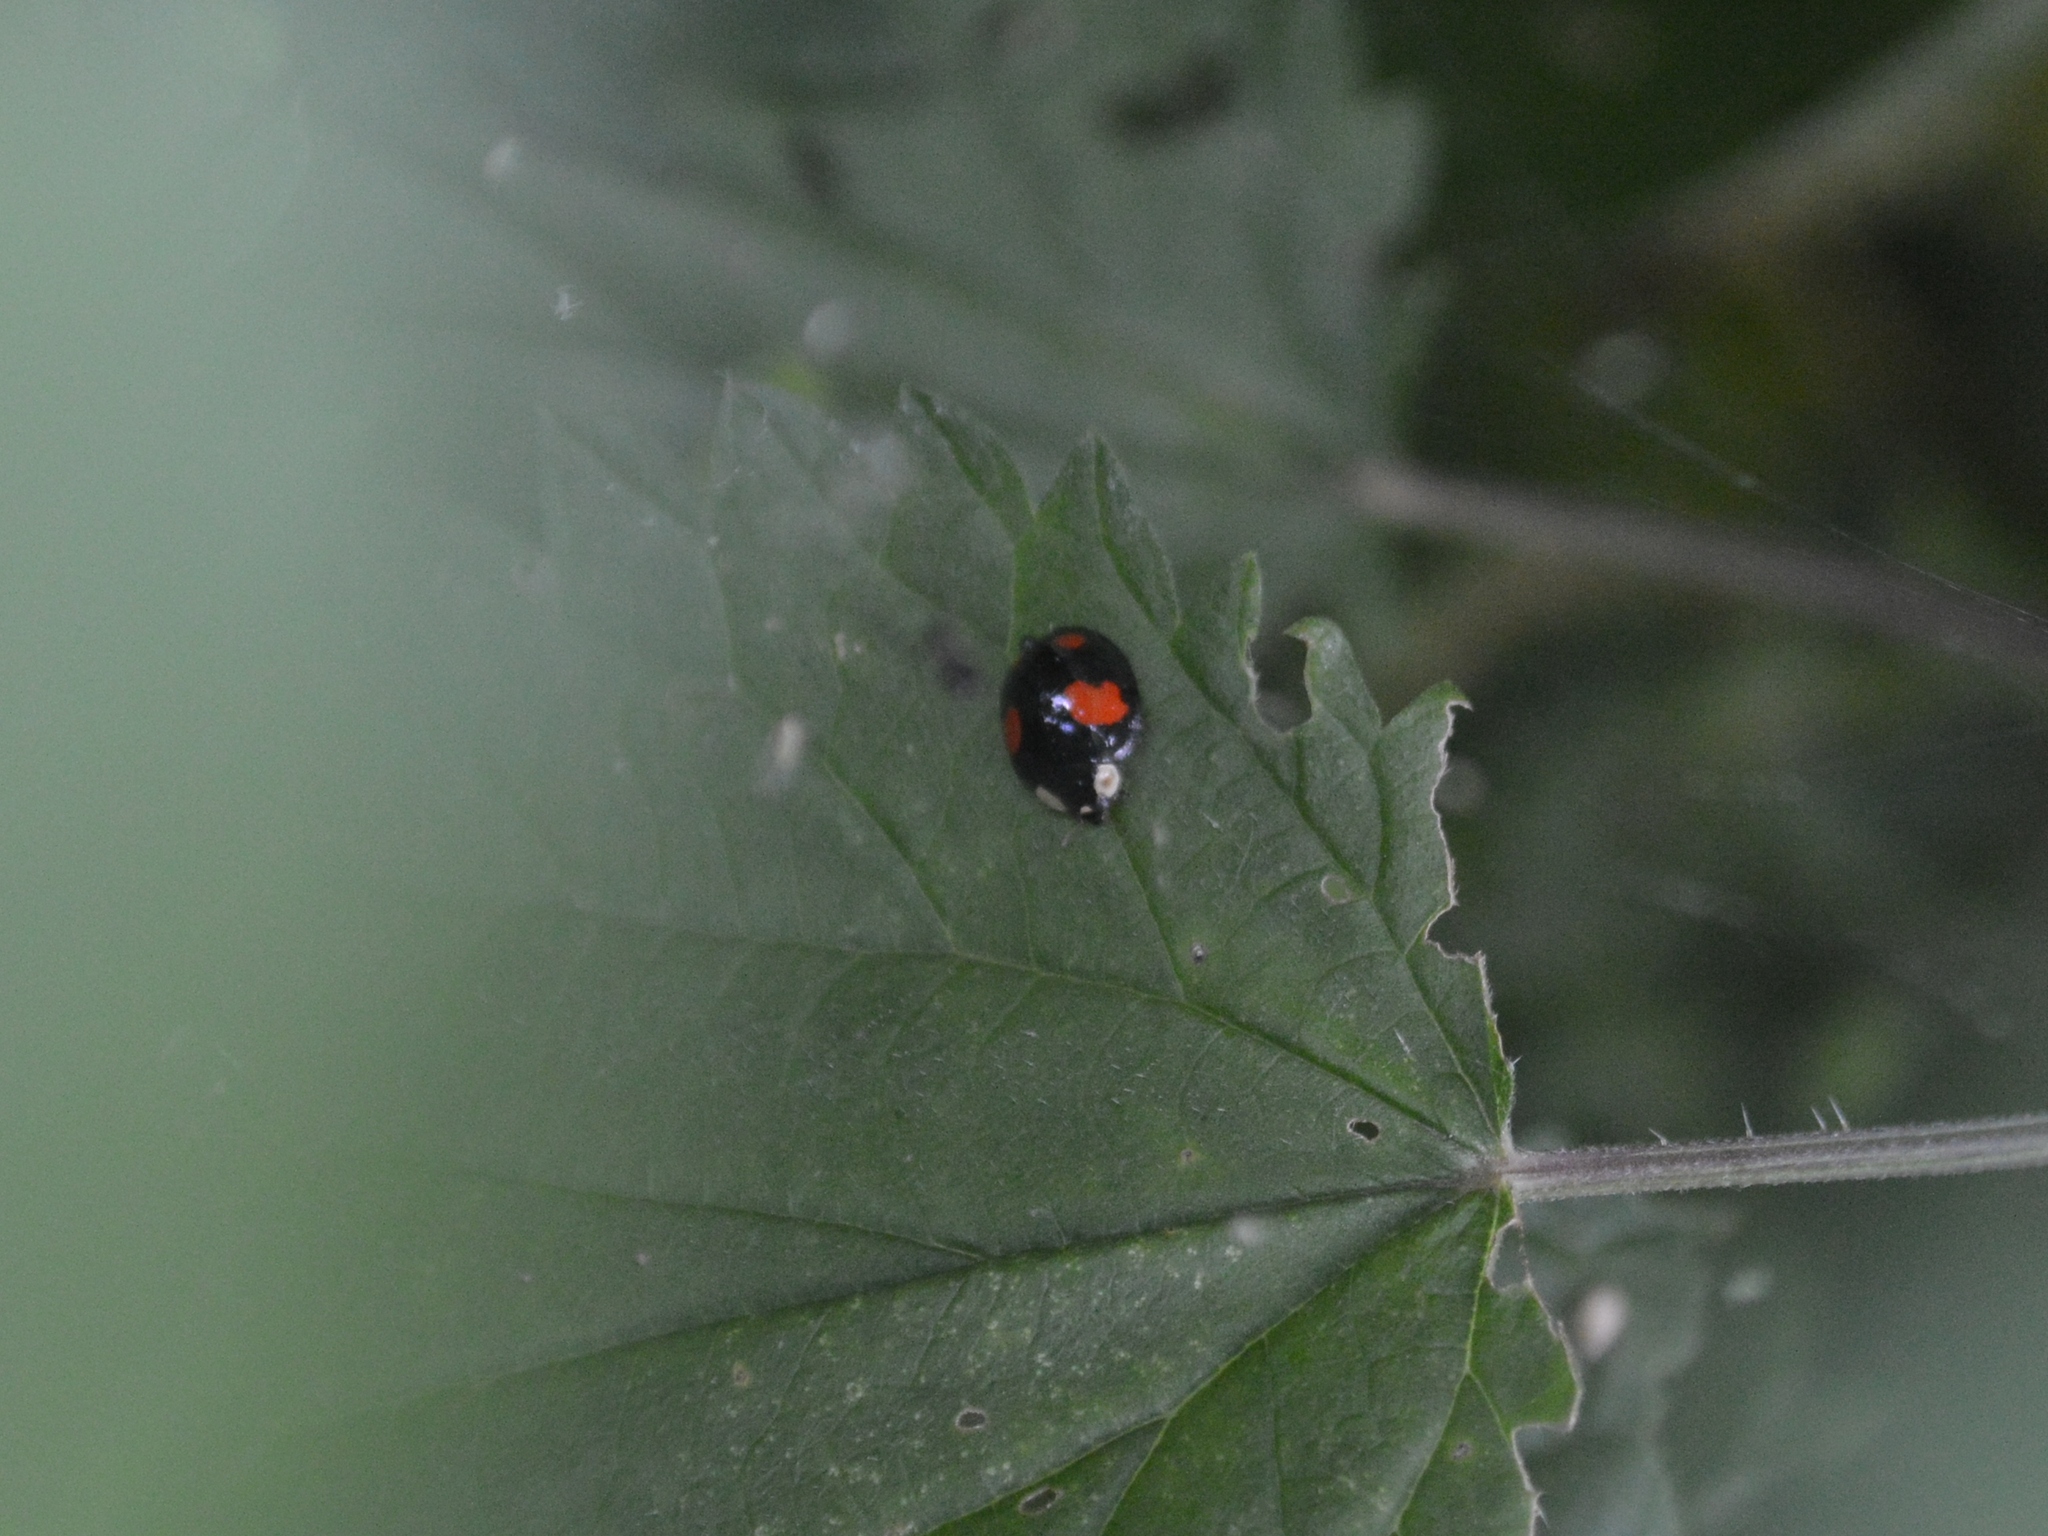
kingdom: Animalia
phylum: Arthropoda
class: Insecta
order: Coleoptera
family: Coccinellidae
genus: Harmonia
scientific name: Harmonia axyridis
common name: Harlequin ladybird
